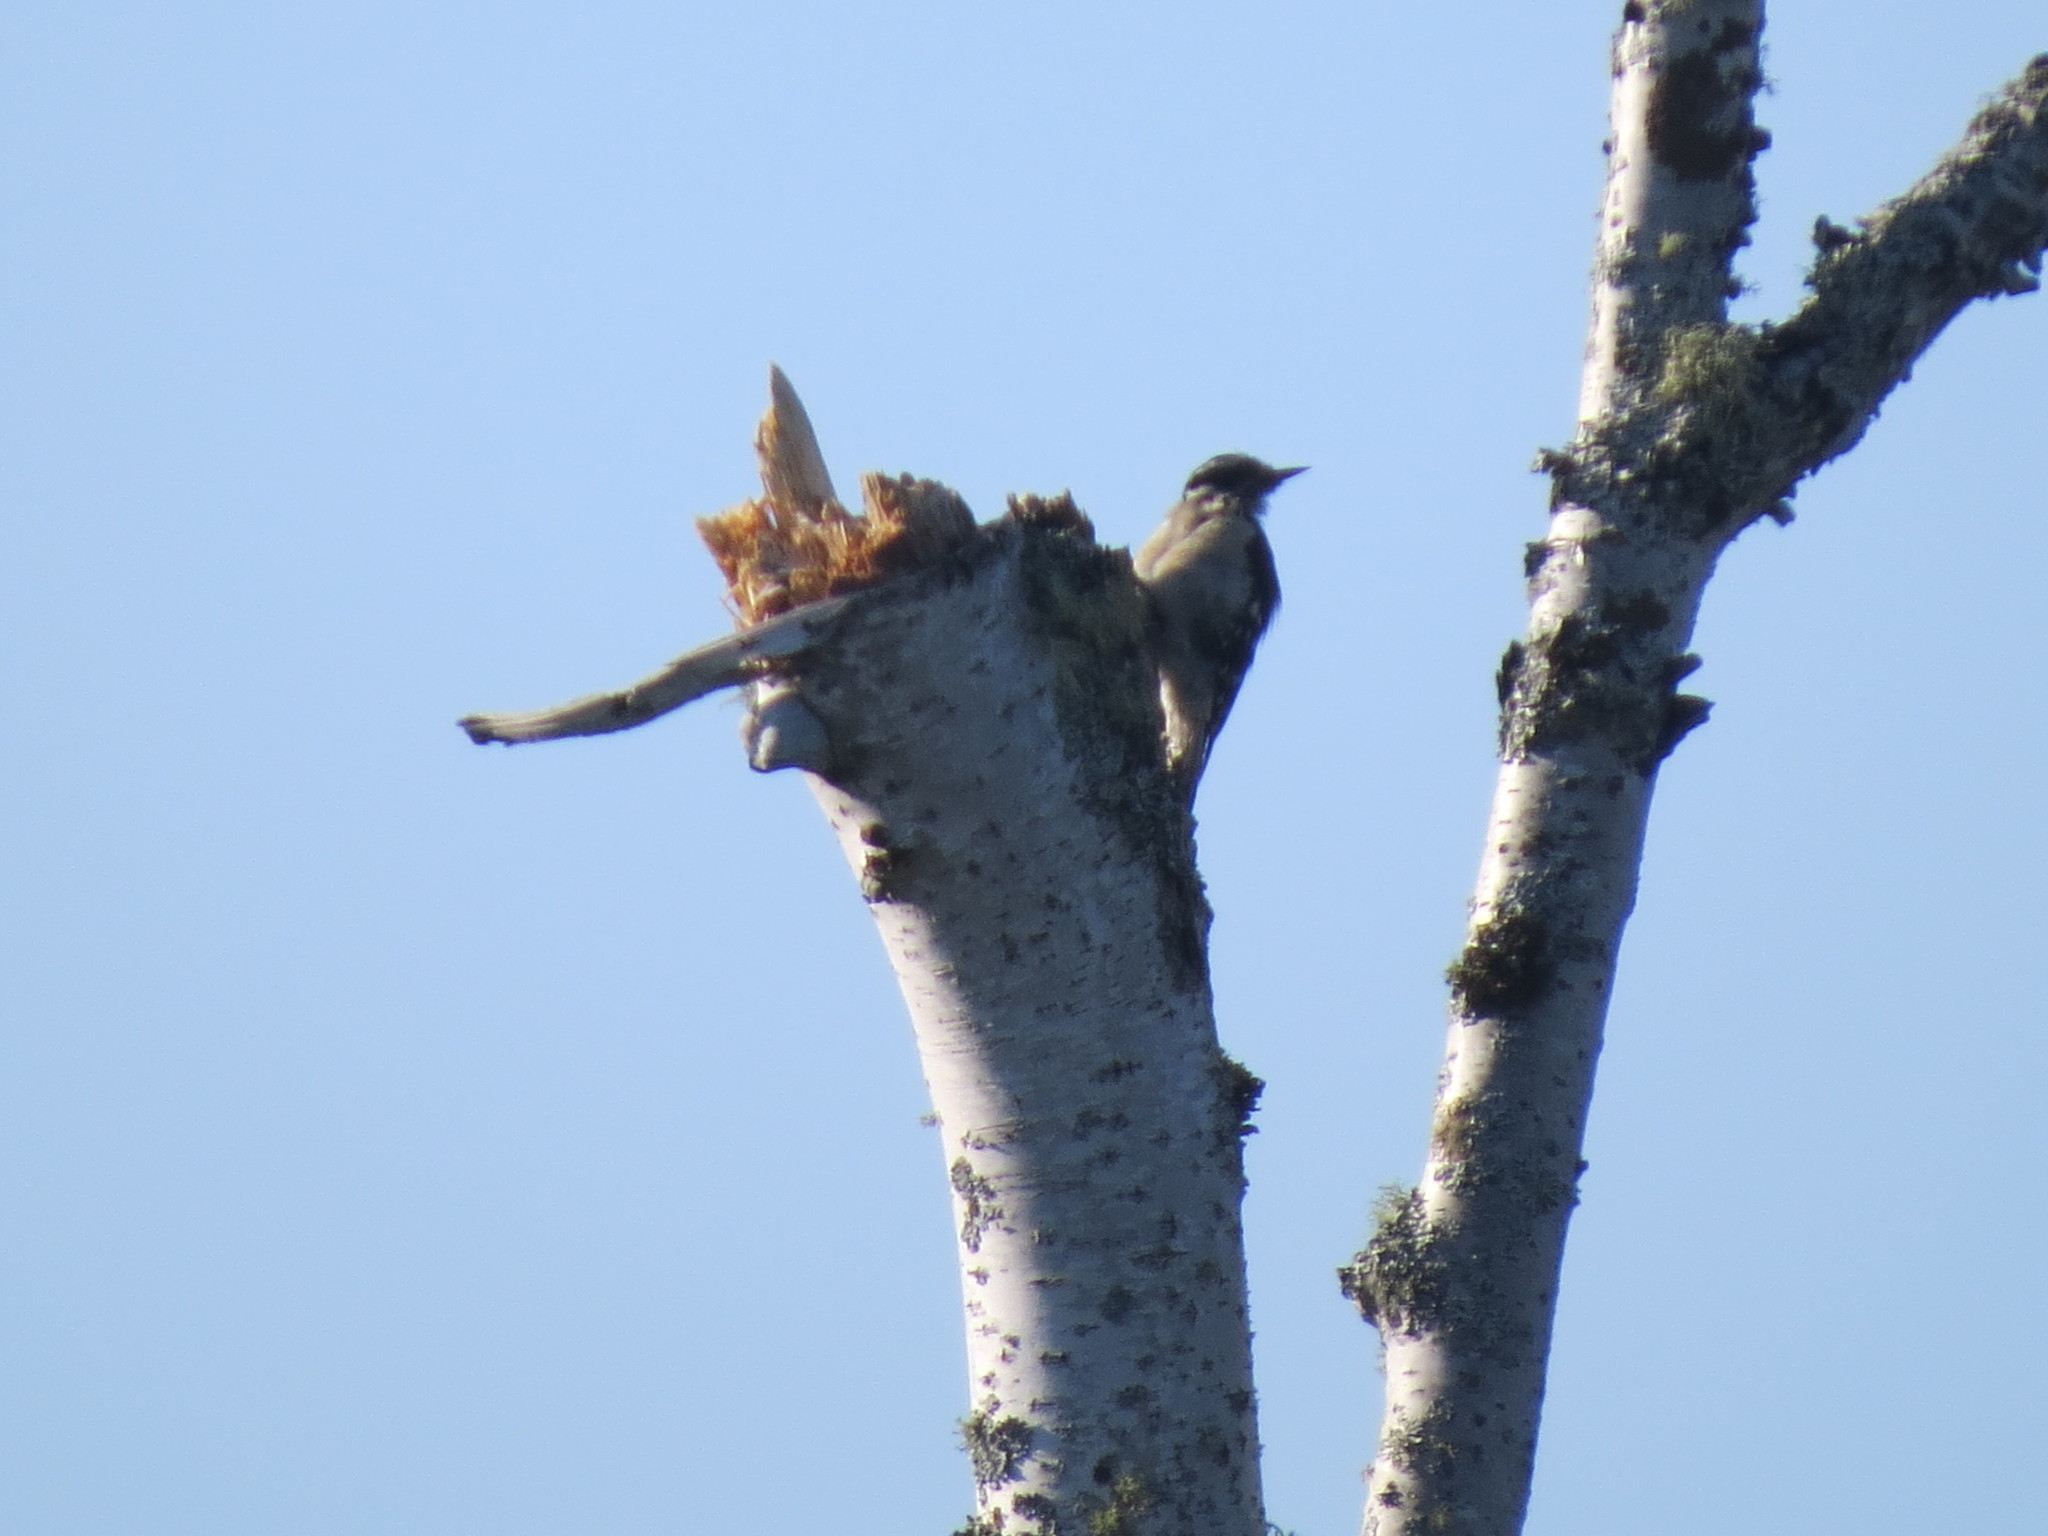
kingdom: Animalia
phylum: Chordata
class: Aves
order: Piciformes
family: Picidae
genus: Dryobates
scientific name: Dryobates pubescens
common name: Downy woodpecker
